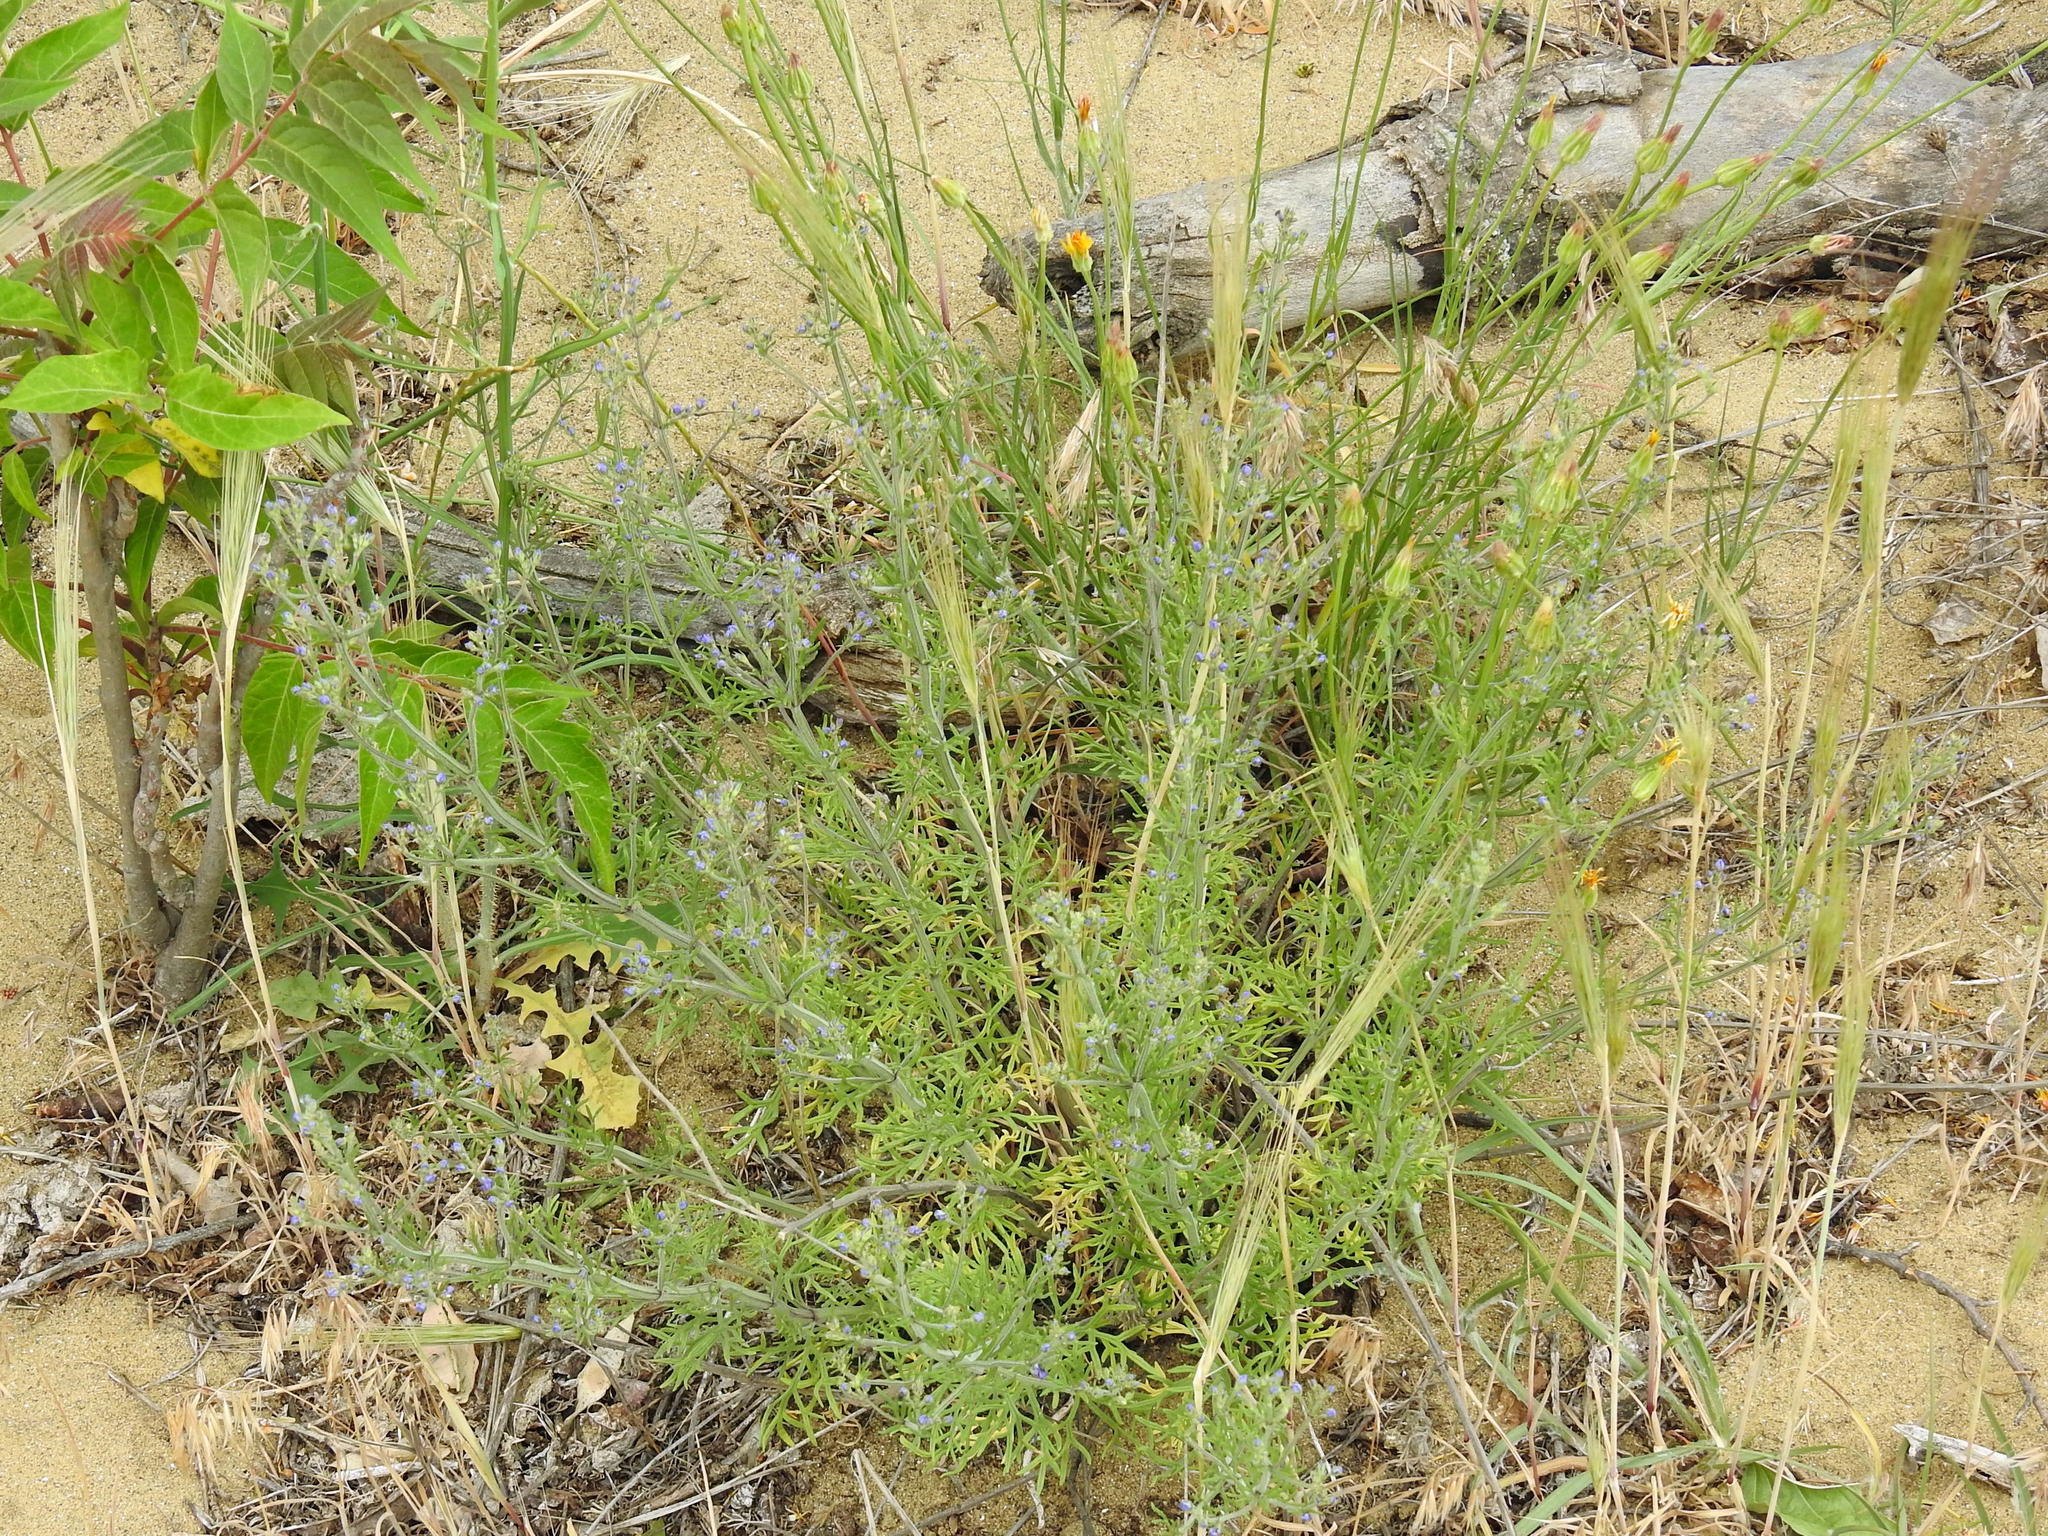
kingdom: Plantae
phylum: Tracheophyta
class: Magnoliopsida
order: Lamiales
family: Lamiaceae
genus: Teucrium
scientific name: Teucrium orientale
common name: Oriental germander
